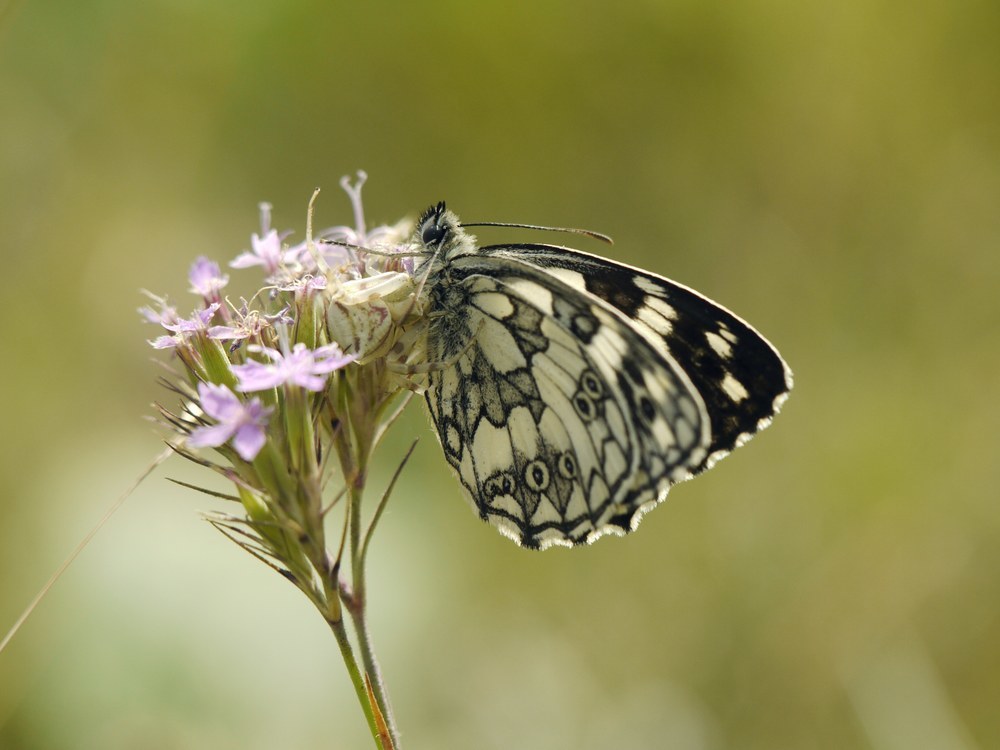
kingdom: Animalia
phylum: Arthropoda
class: Insecta
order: Lepidoptera
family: Nymphalidae
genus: Melanargia
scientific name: Melanargia galathea
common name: Marbled white
